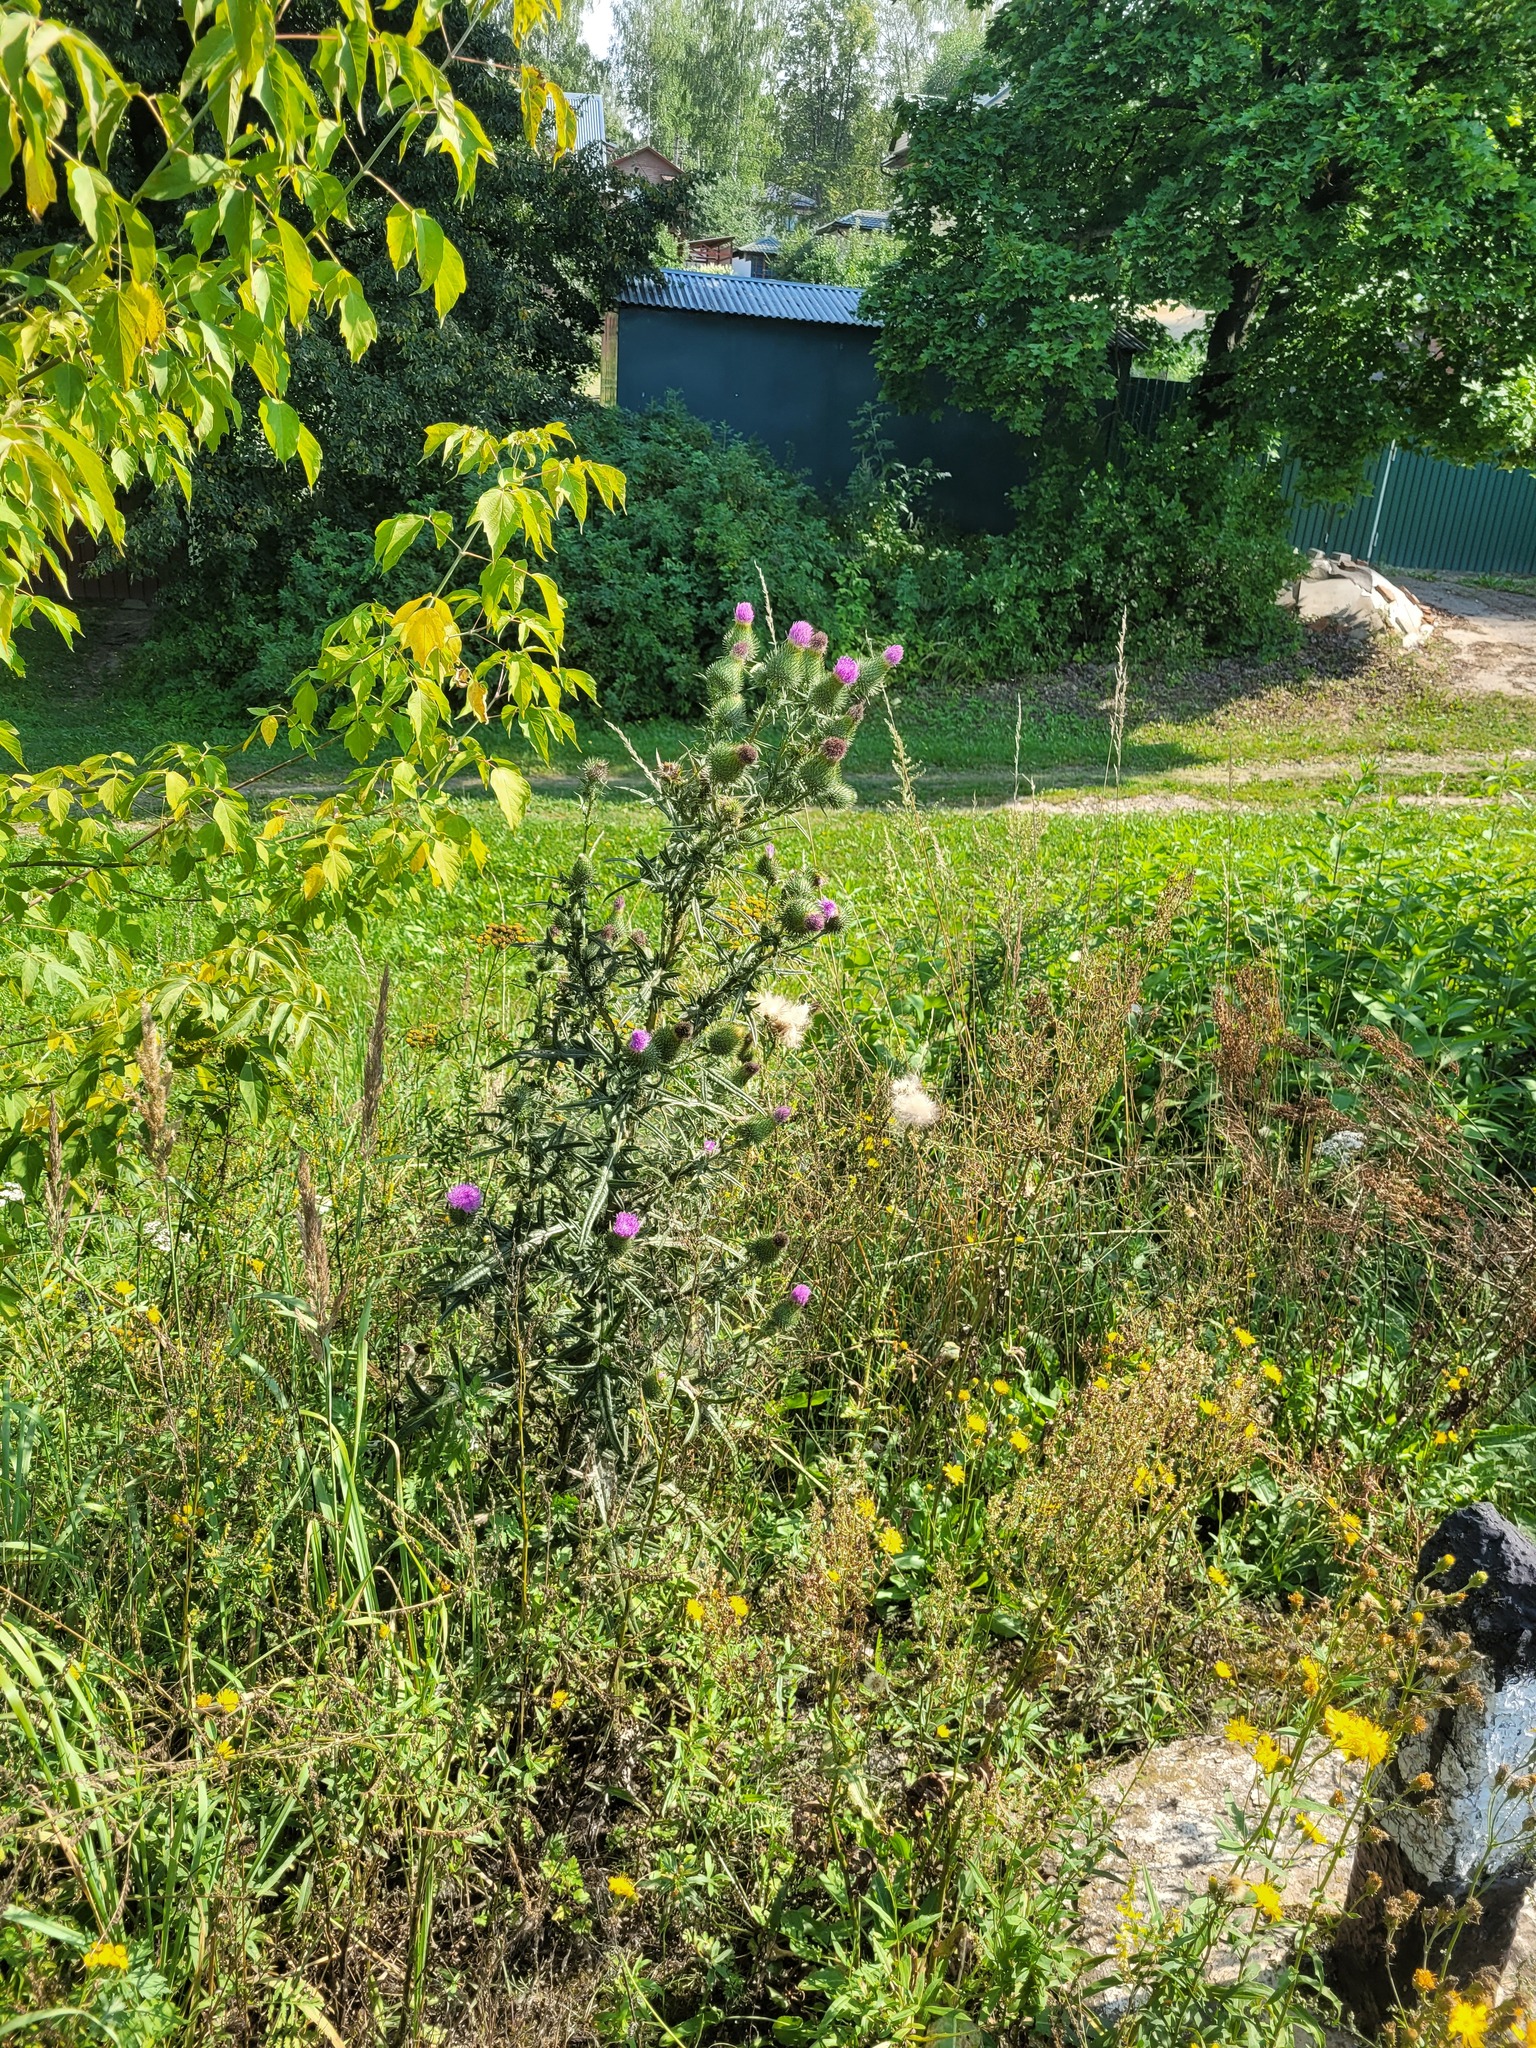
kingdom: Plantae
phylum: Tracheophyta
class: Magnoliopsida
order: Asterales
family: Asteraceae
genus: Cirsium
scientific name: Cirsium vulgare
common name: Bull thistle
